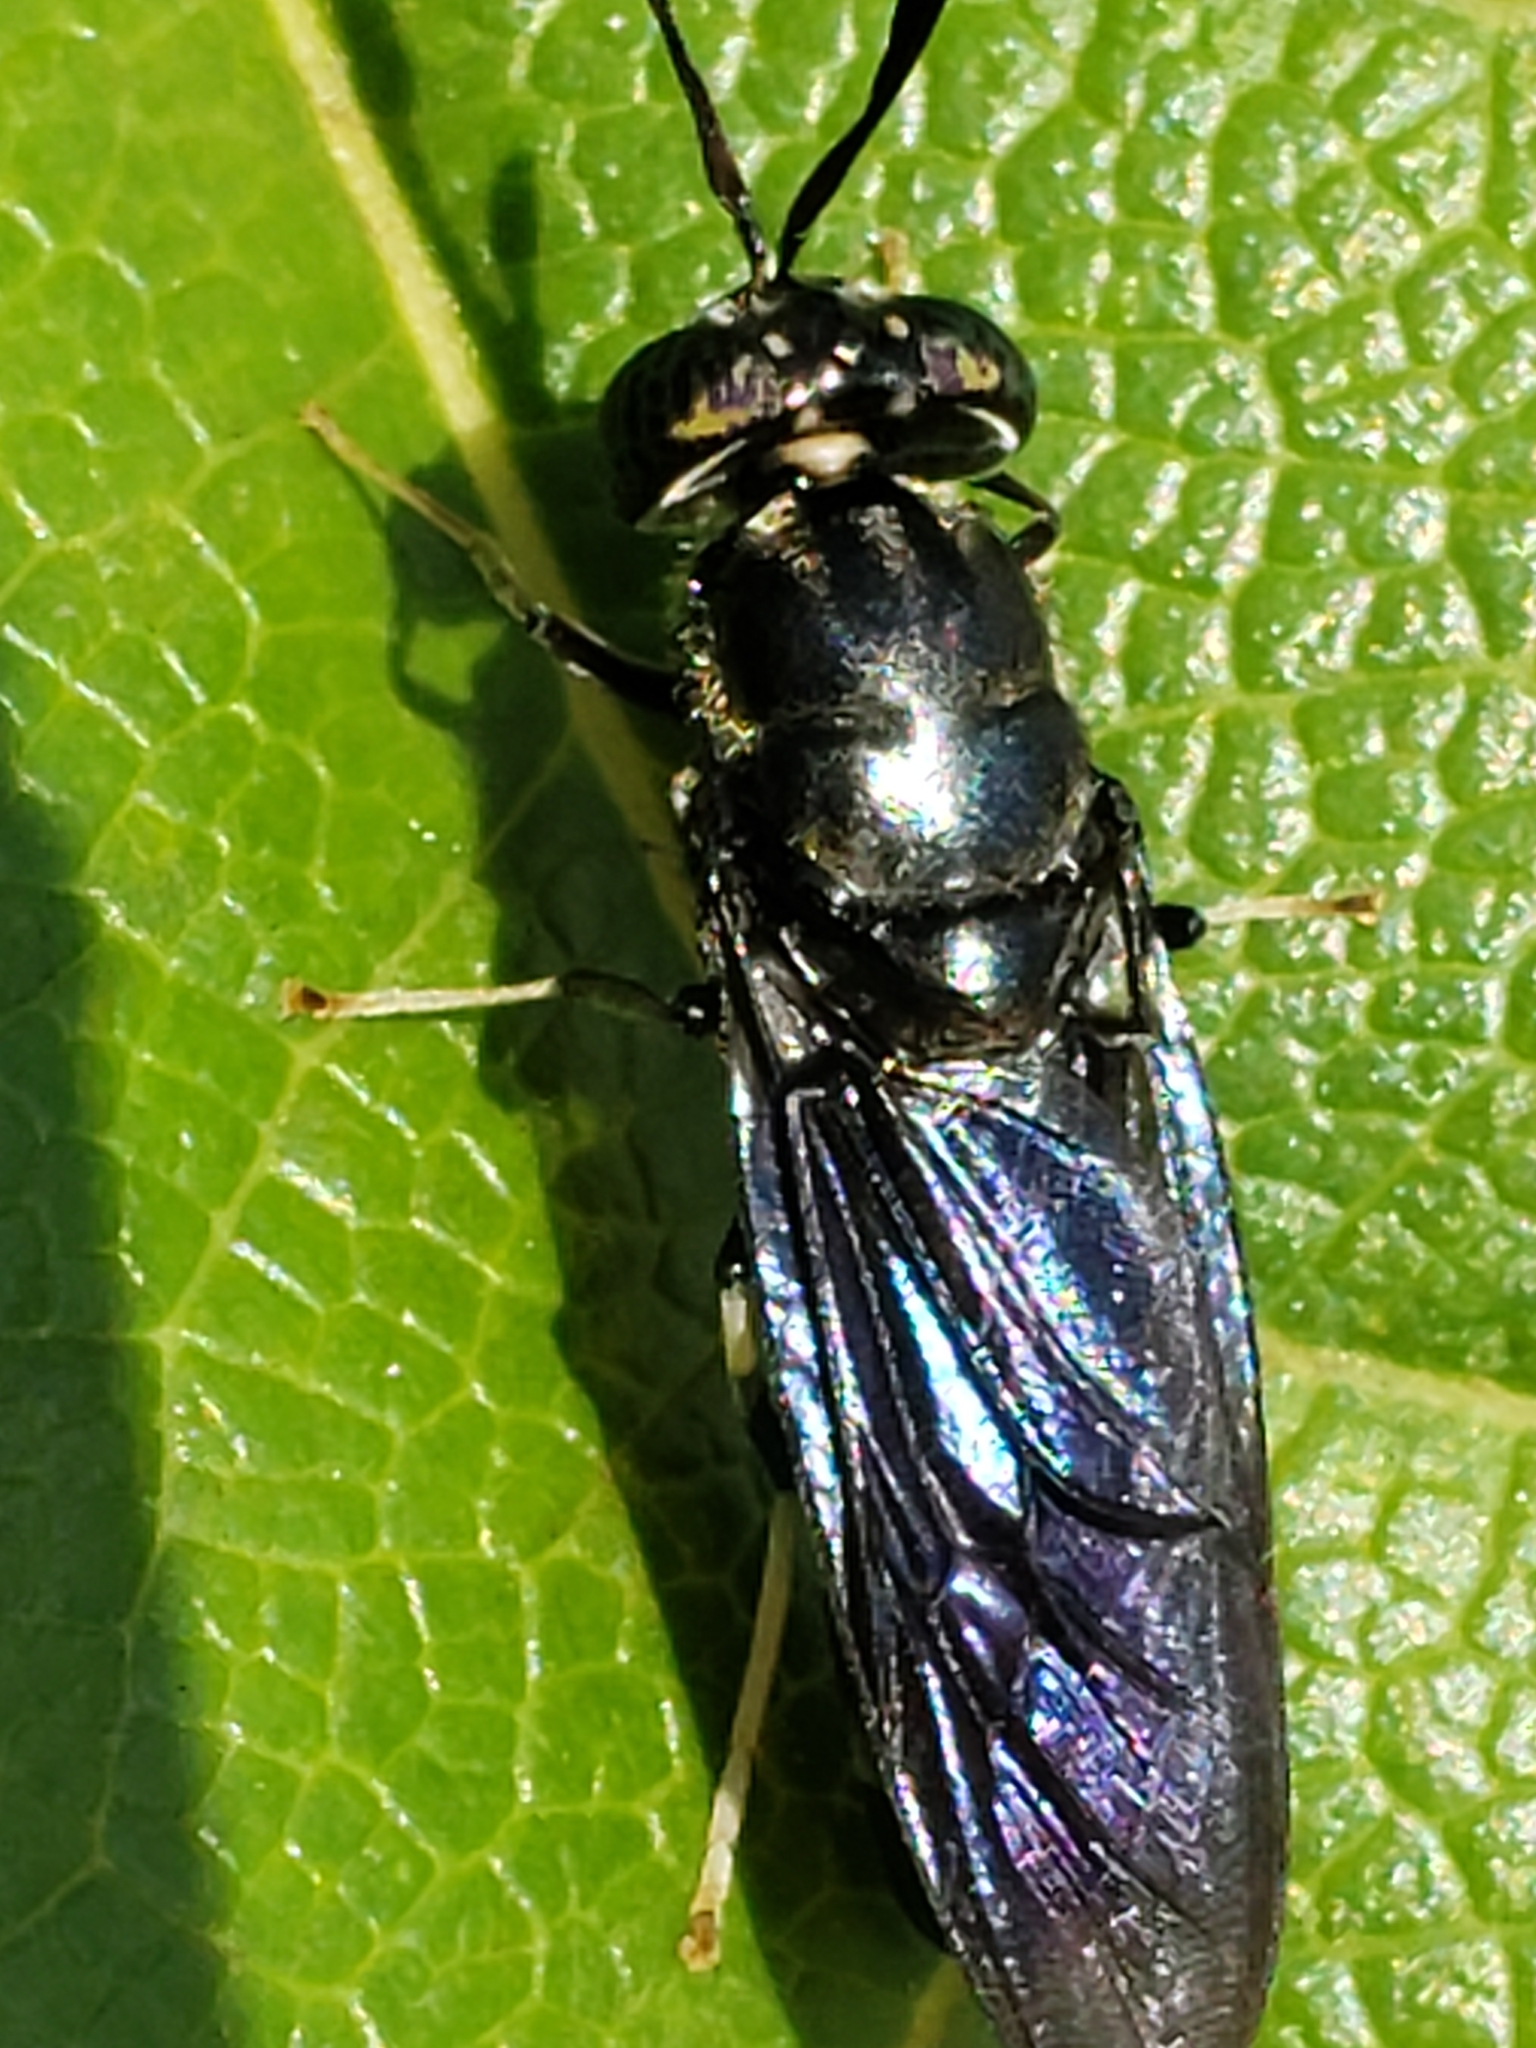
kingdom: Animalia
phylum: Arthropoda
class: Insecta
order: Diptera
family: Stratiomyidae
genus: Hermetia
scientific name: Hermetia illucens
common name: Black soldier fly
